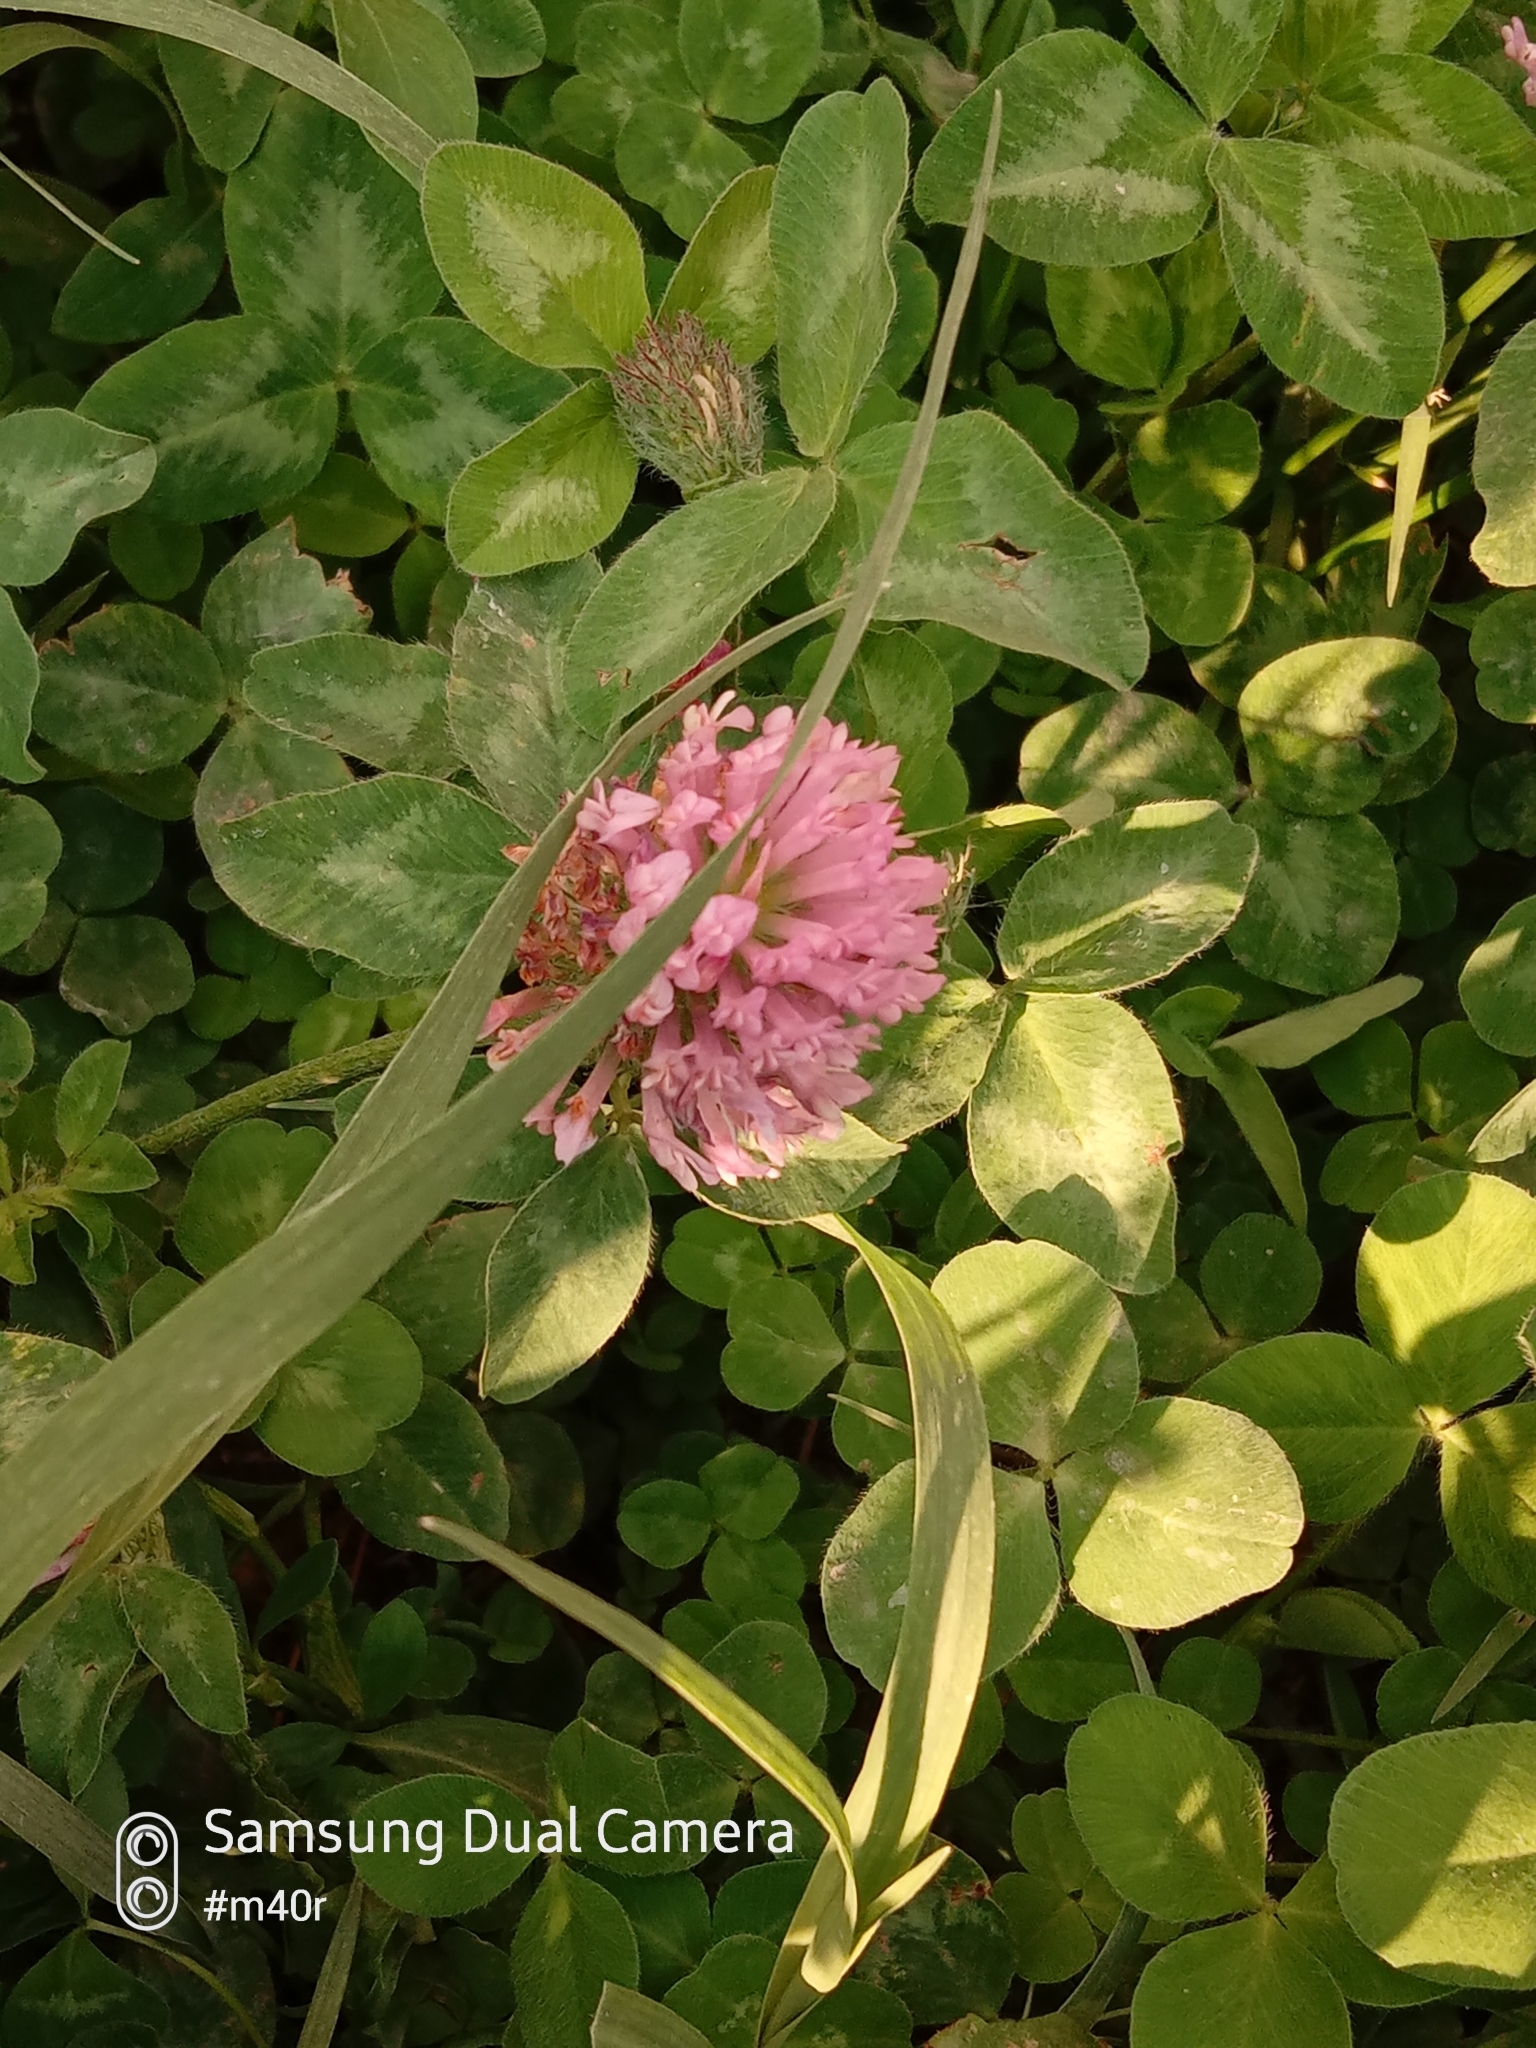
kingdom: Plantae
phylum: Tracheophyta
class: Magnoliopsida
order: Fabales
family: Fabaceae
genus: Trifolium
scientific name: Trifolium pratense
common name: Red clover
